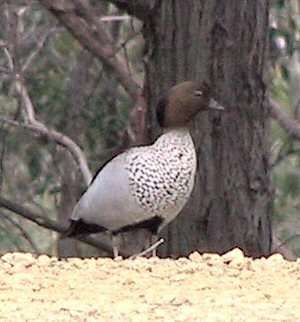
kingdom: Animalia
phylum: Chordata
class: Aves
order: Anseriformes
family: Anatidae
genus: Chenonetta
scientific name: Chenonetta jubata
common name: Maned duck
